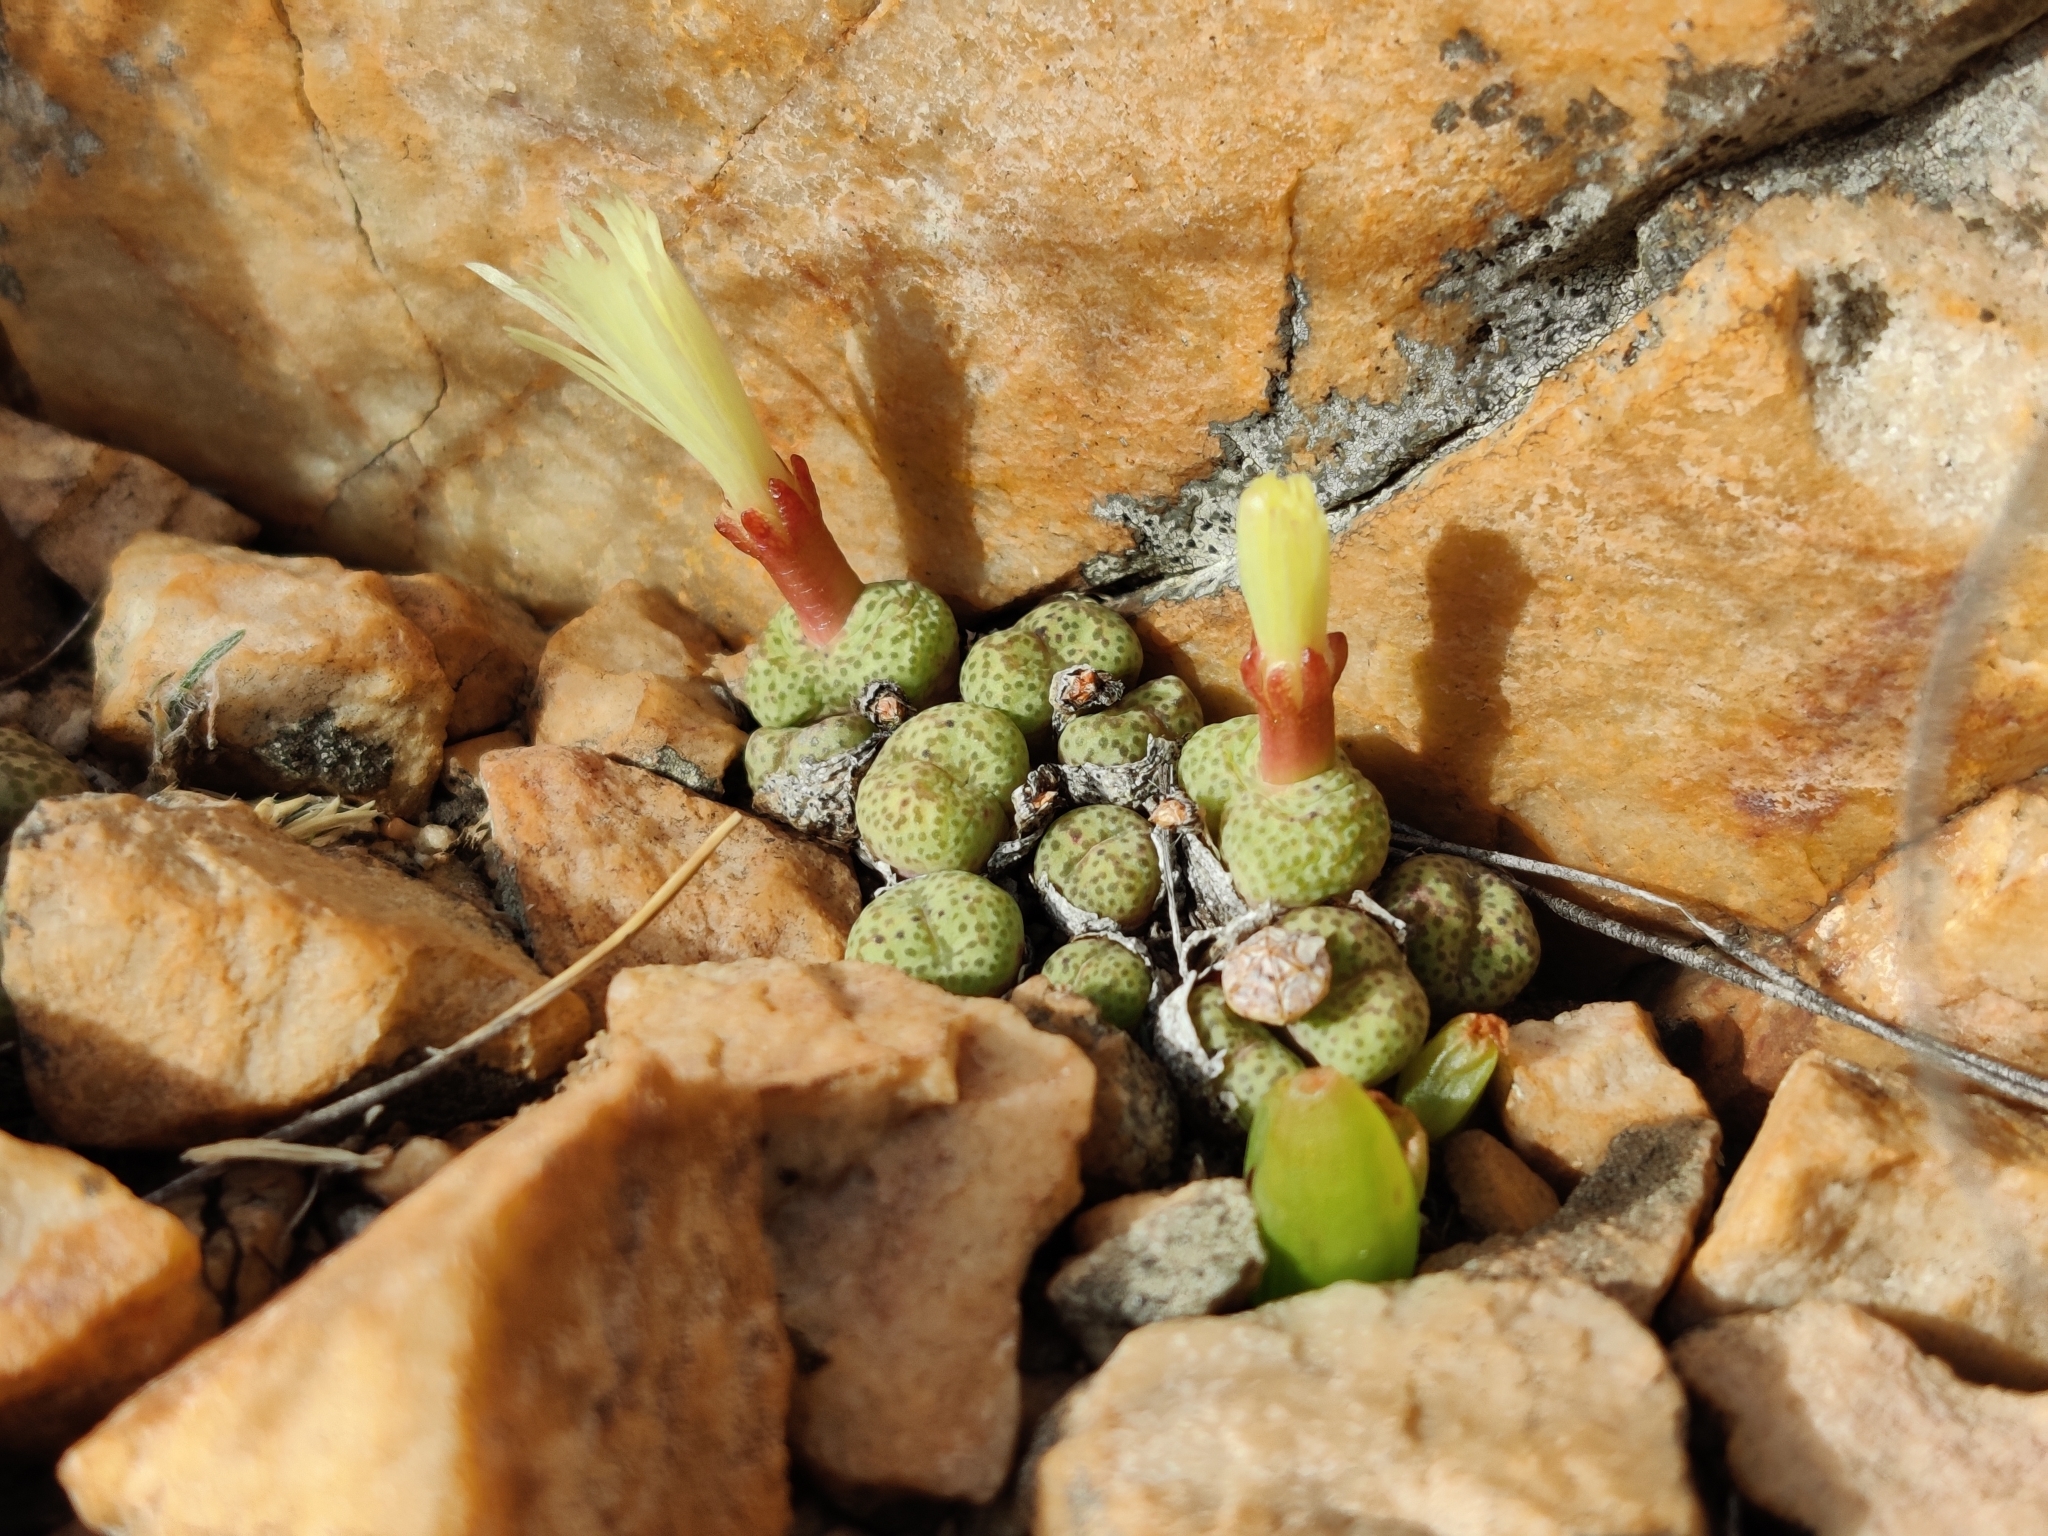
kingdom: Plantae
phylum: Tracheophyta
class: Magnoliopsida
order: Caryophyllales
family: Aizoaceae
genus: Conophytum
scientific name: Conophytum truncatum
